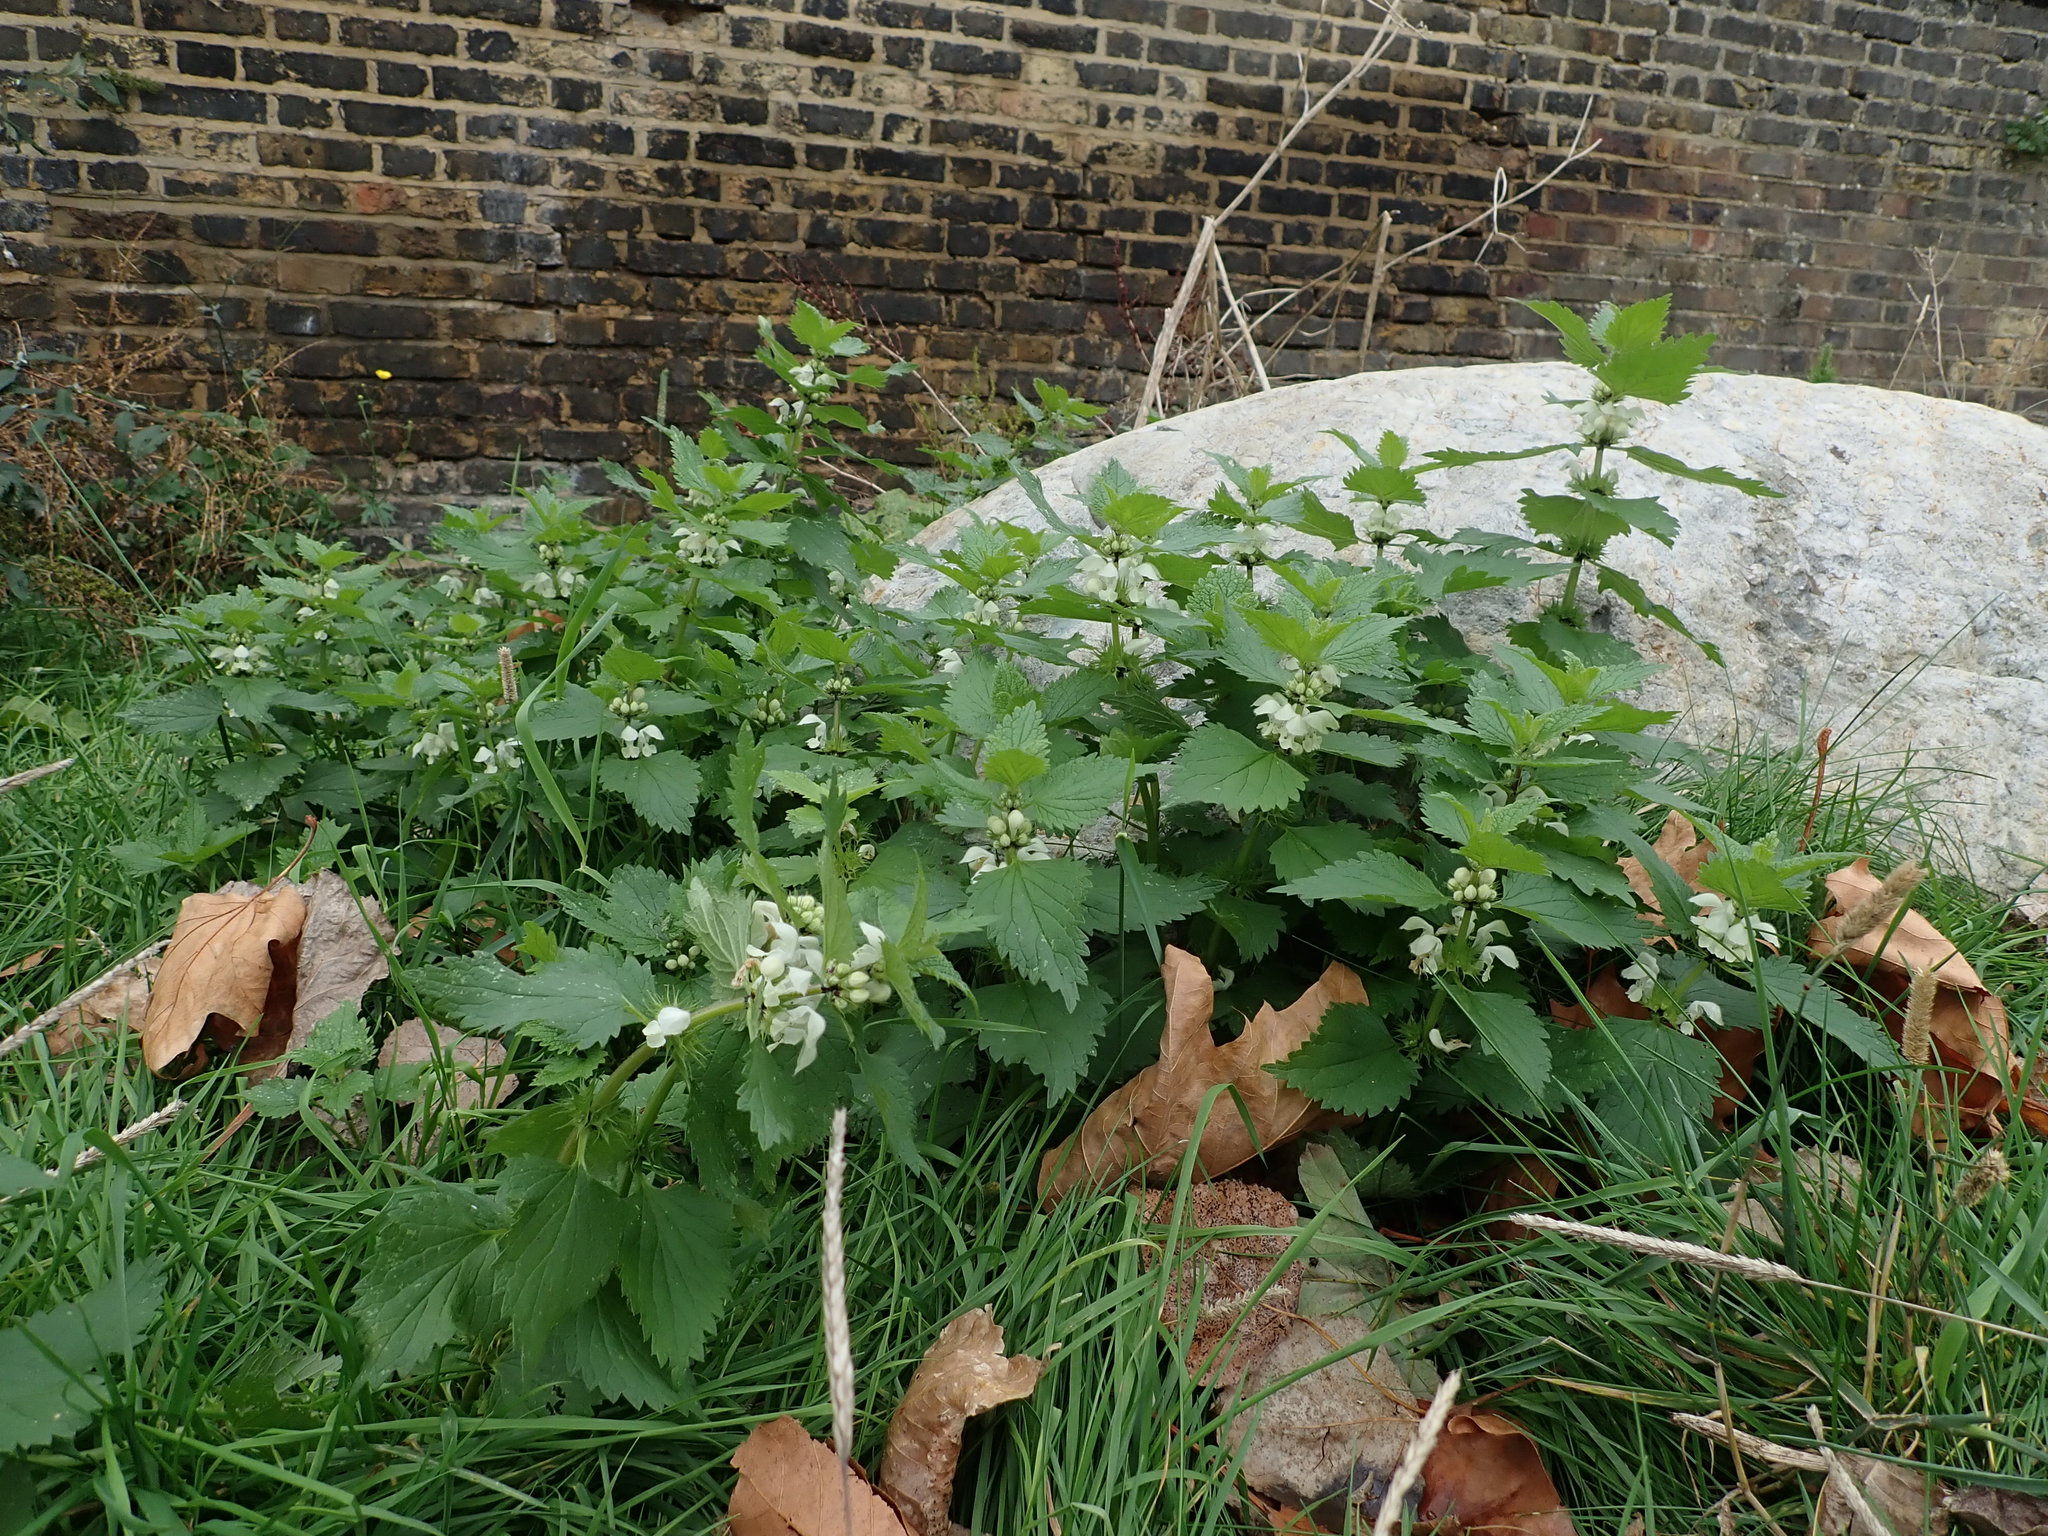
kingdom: Plantae
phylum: Tracheophyta
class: Magnoliopsida
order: Lamiales
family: Lamiaceae
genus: Lamium
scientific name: Lamium album
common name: White dead-nettle
